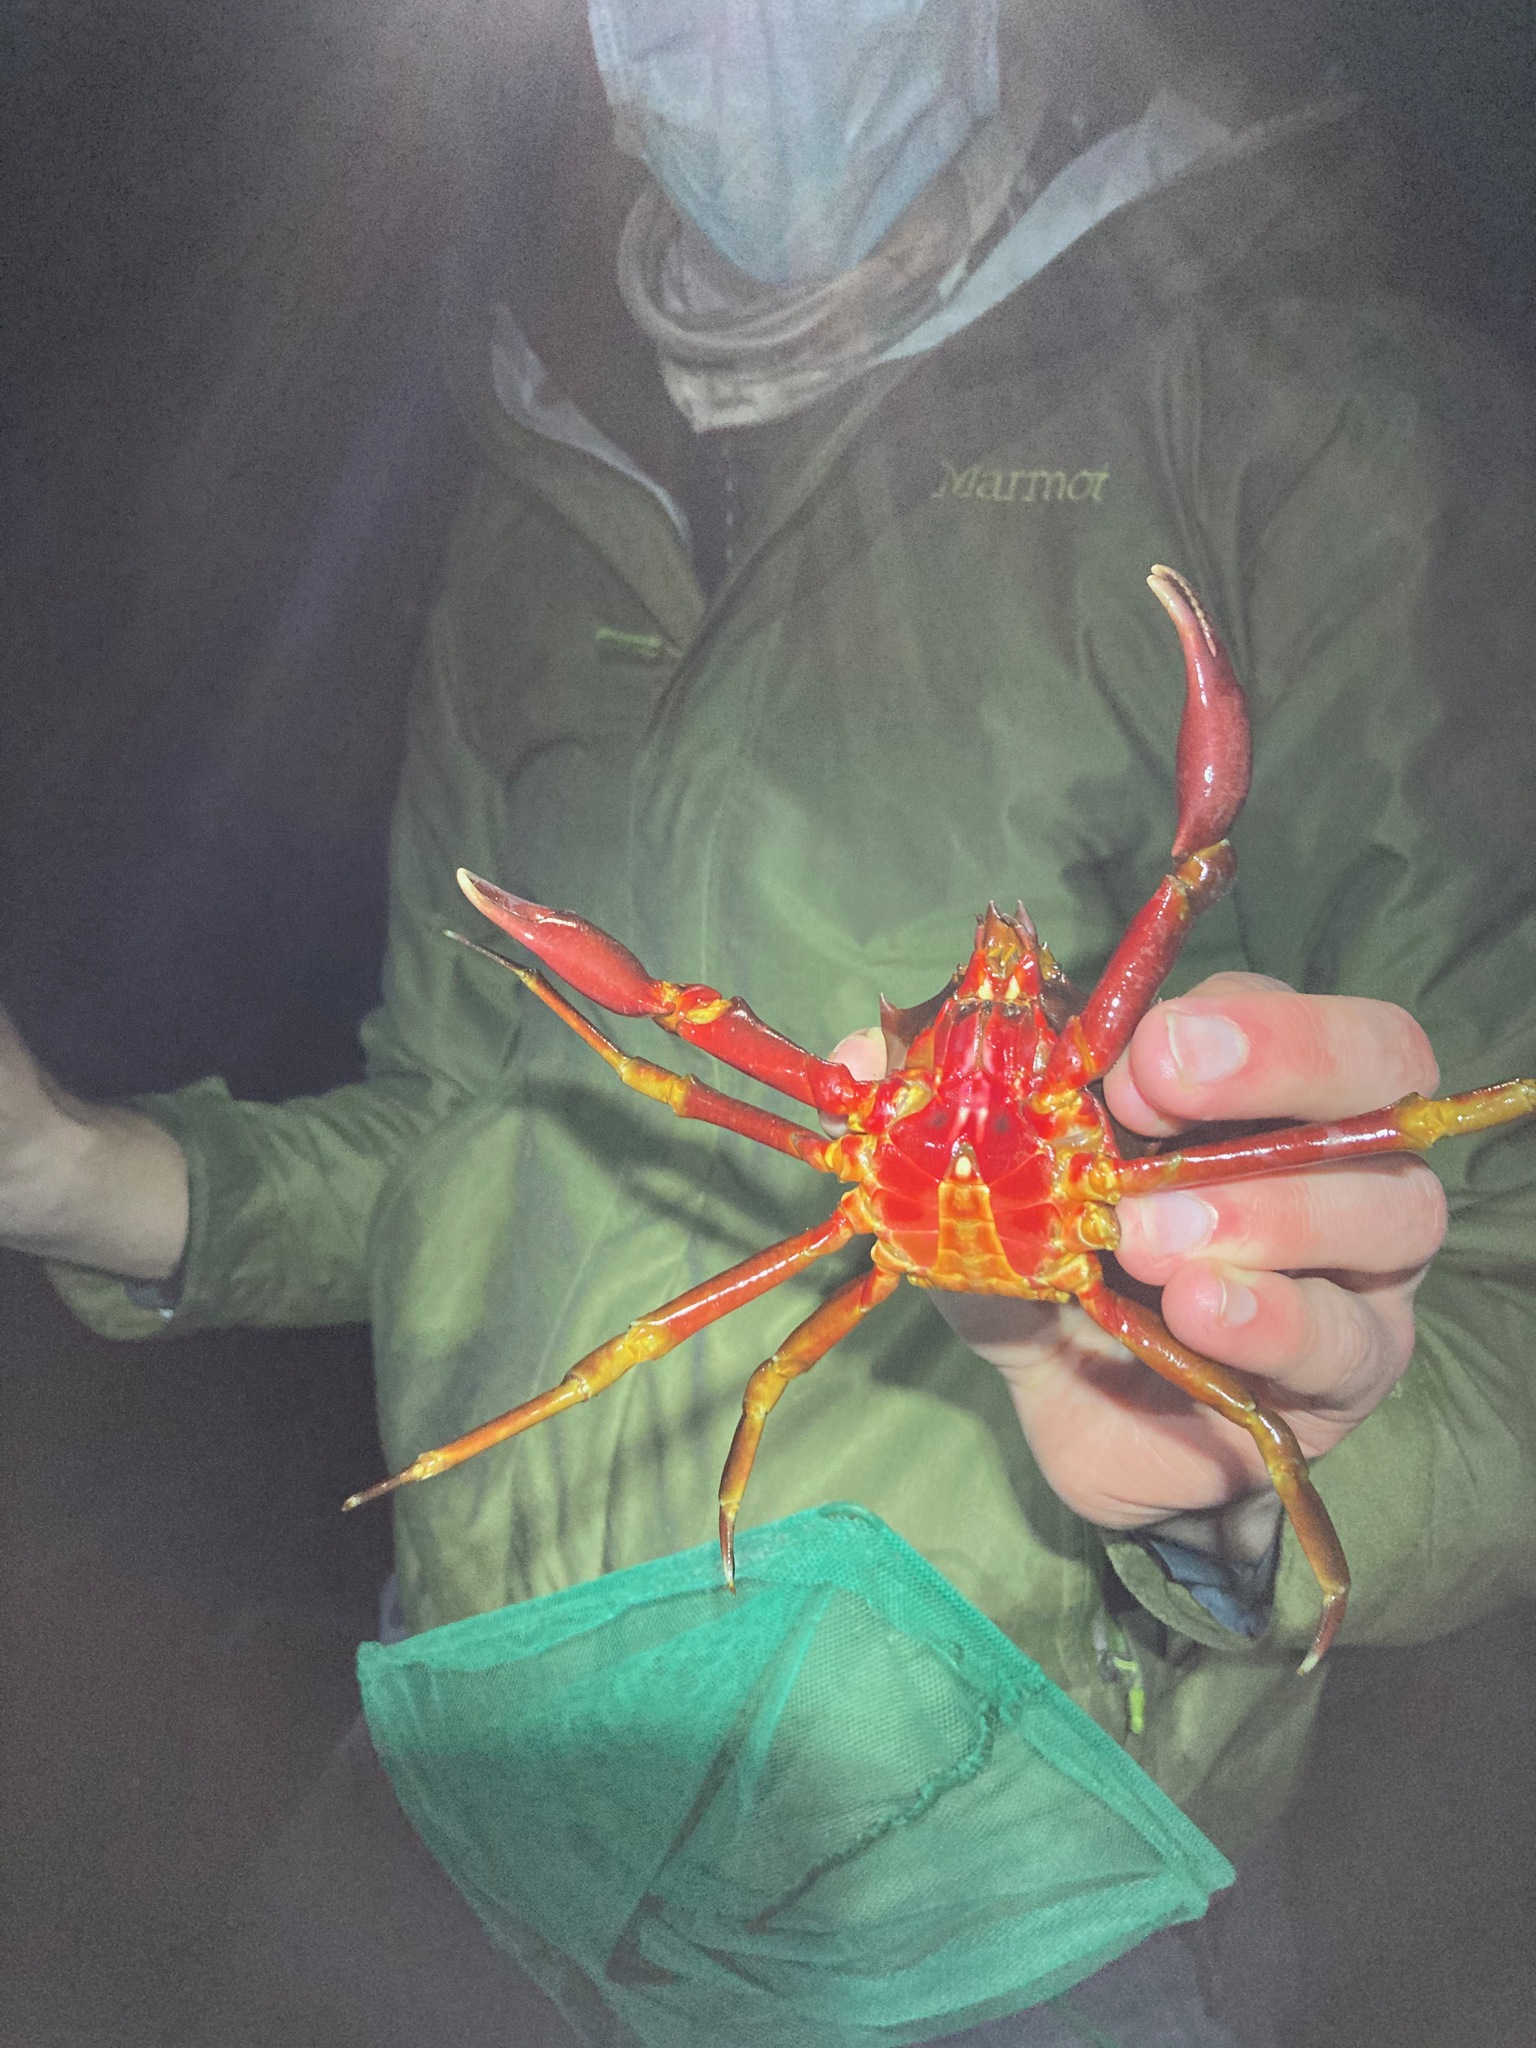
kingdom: Animalia
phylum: Arthropoda
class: Malacostraca
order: Decapoda
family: Epialtidae
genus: Pugettia
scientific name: Pugettia producta
